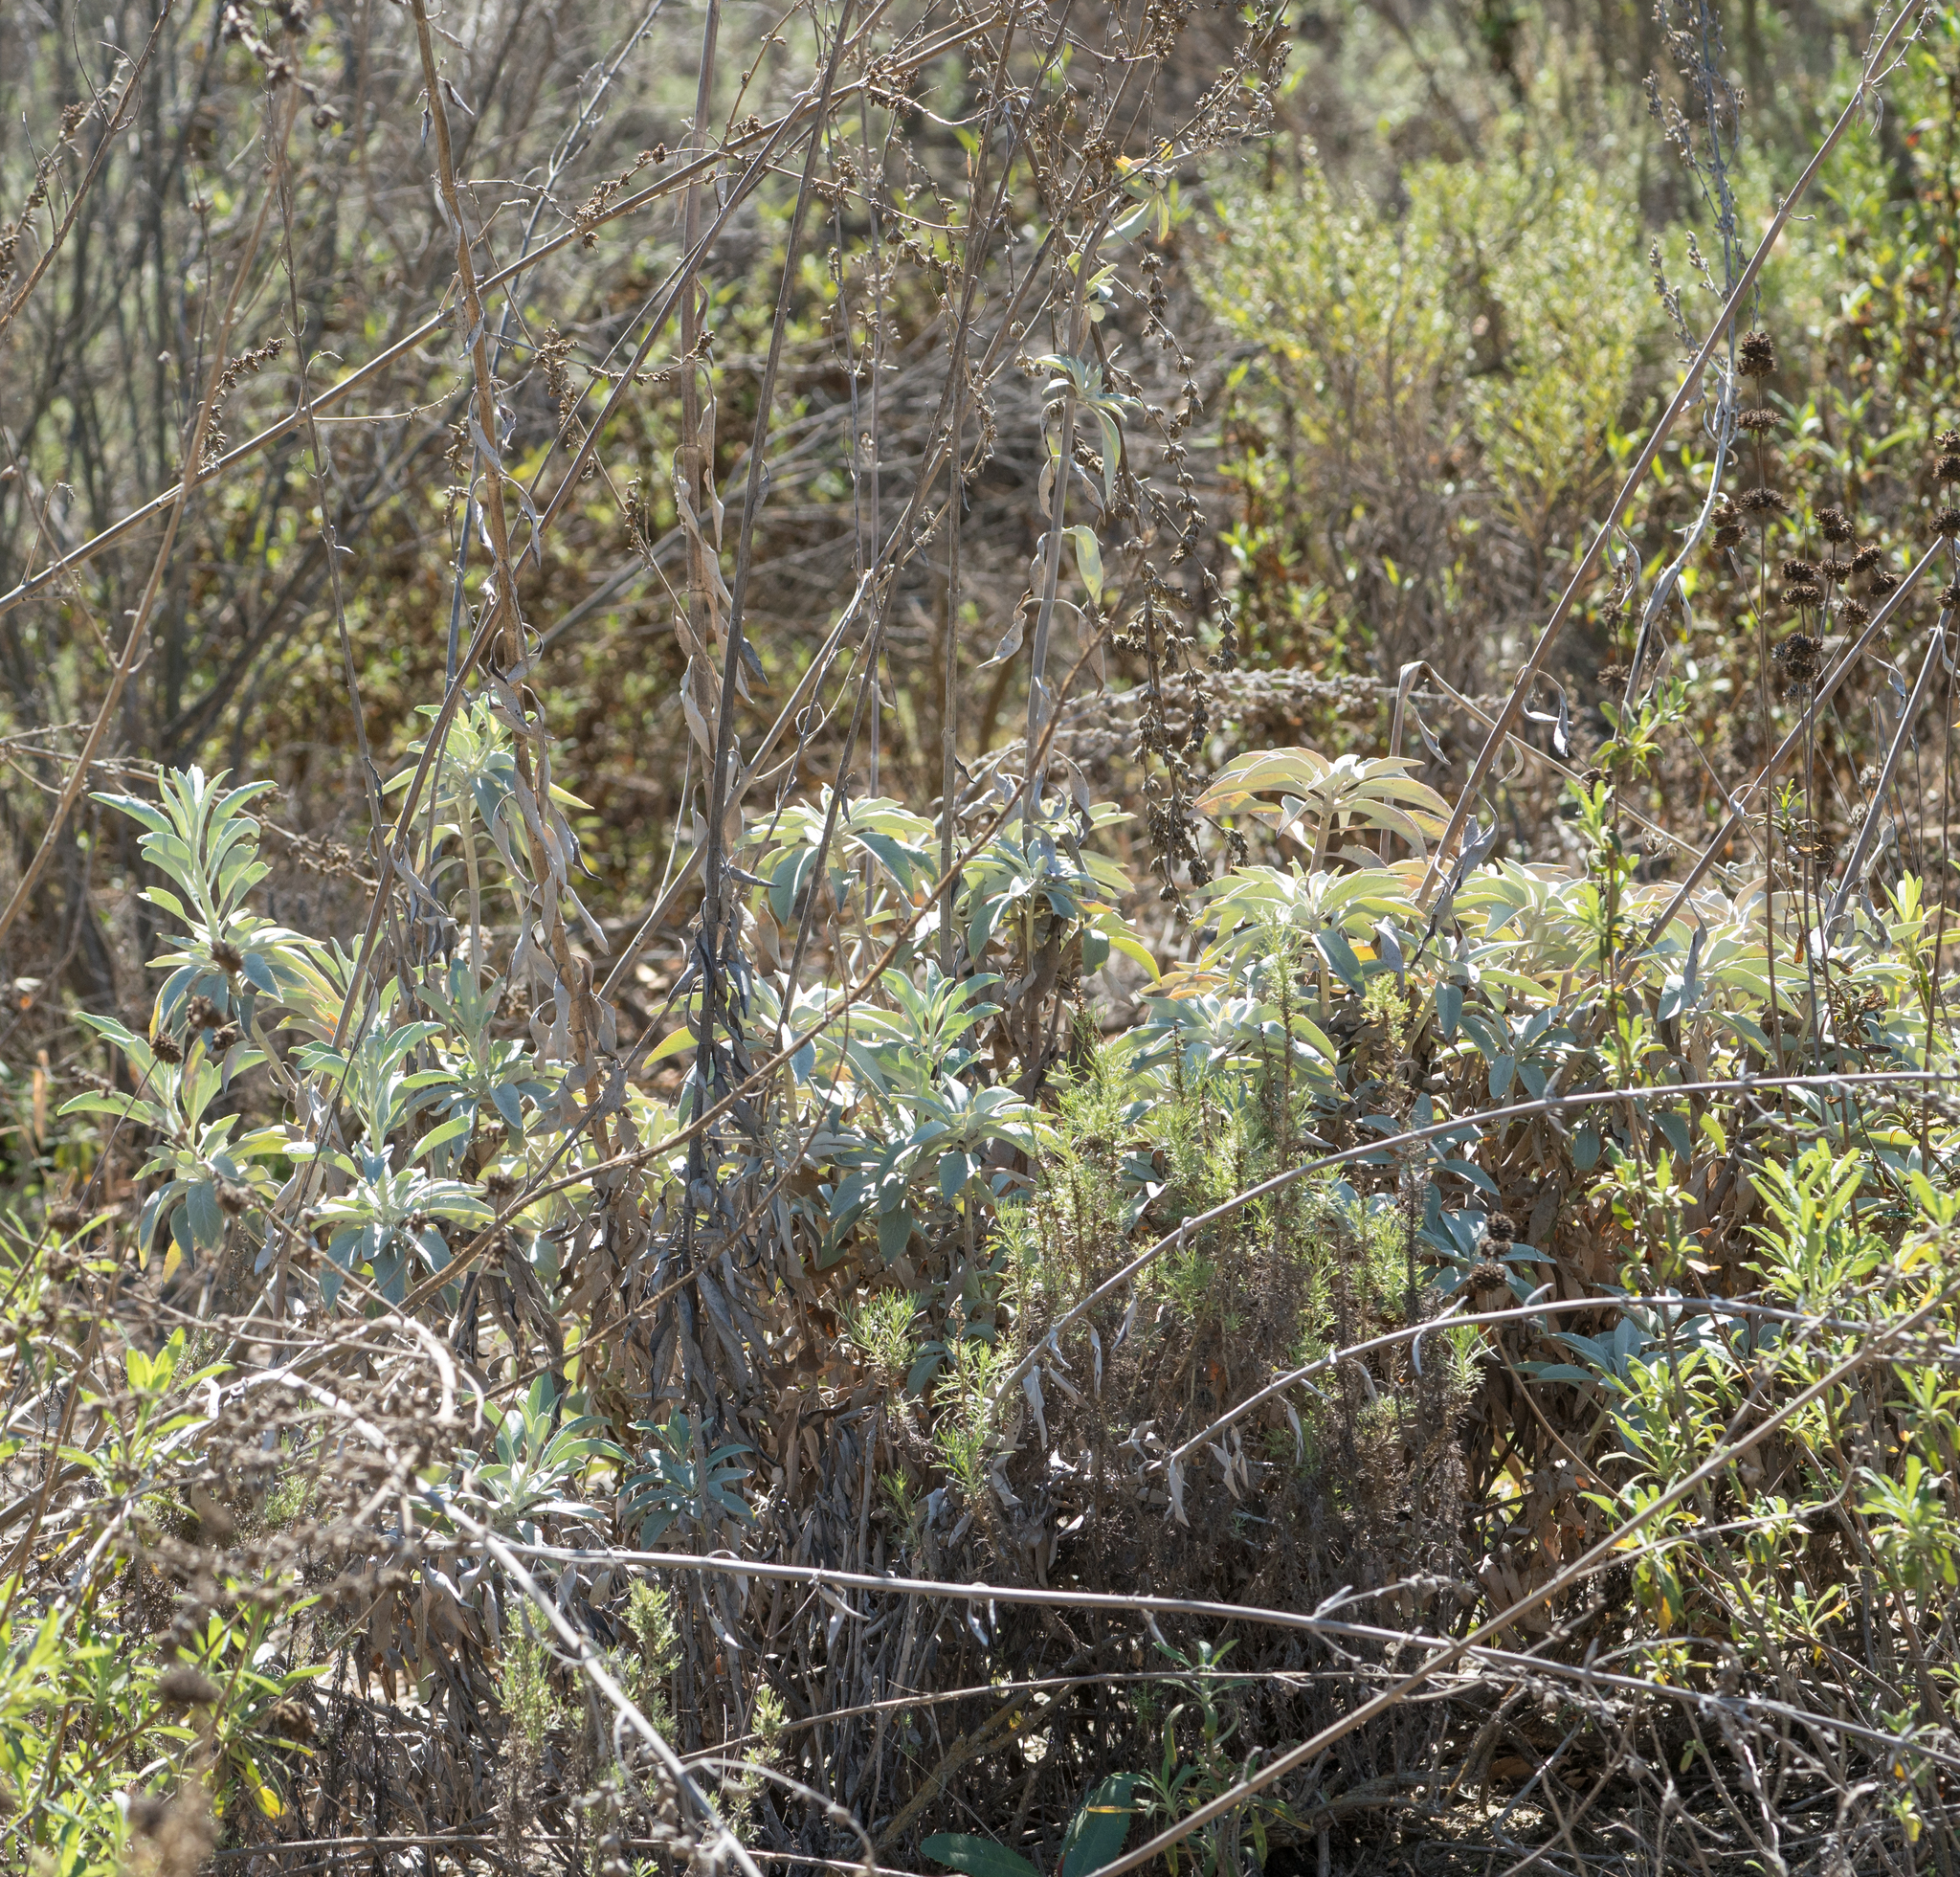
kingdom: Plantae
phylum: Tracheophyta
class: Magnoliopsida
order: Lamiales
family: Lamiaceae
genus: Salvia
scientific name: Salvia apiana
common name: White sage
